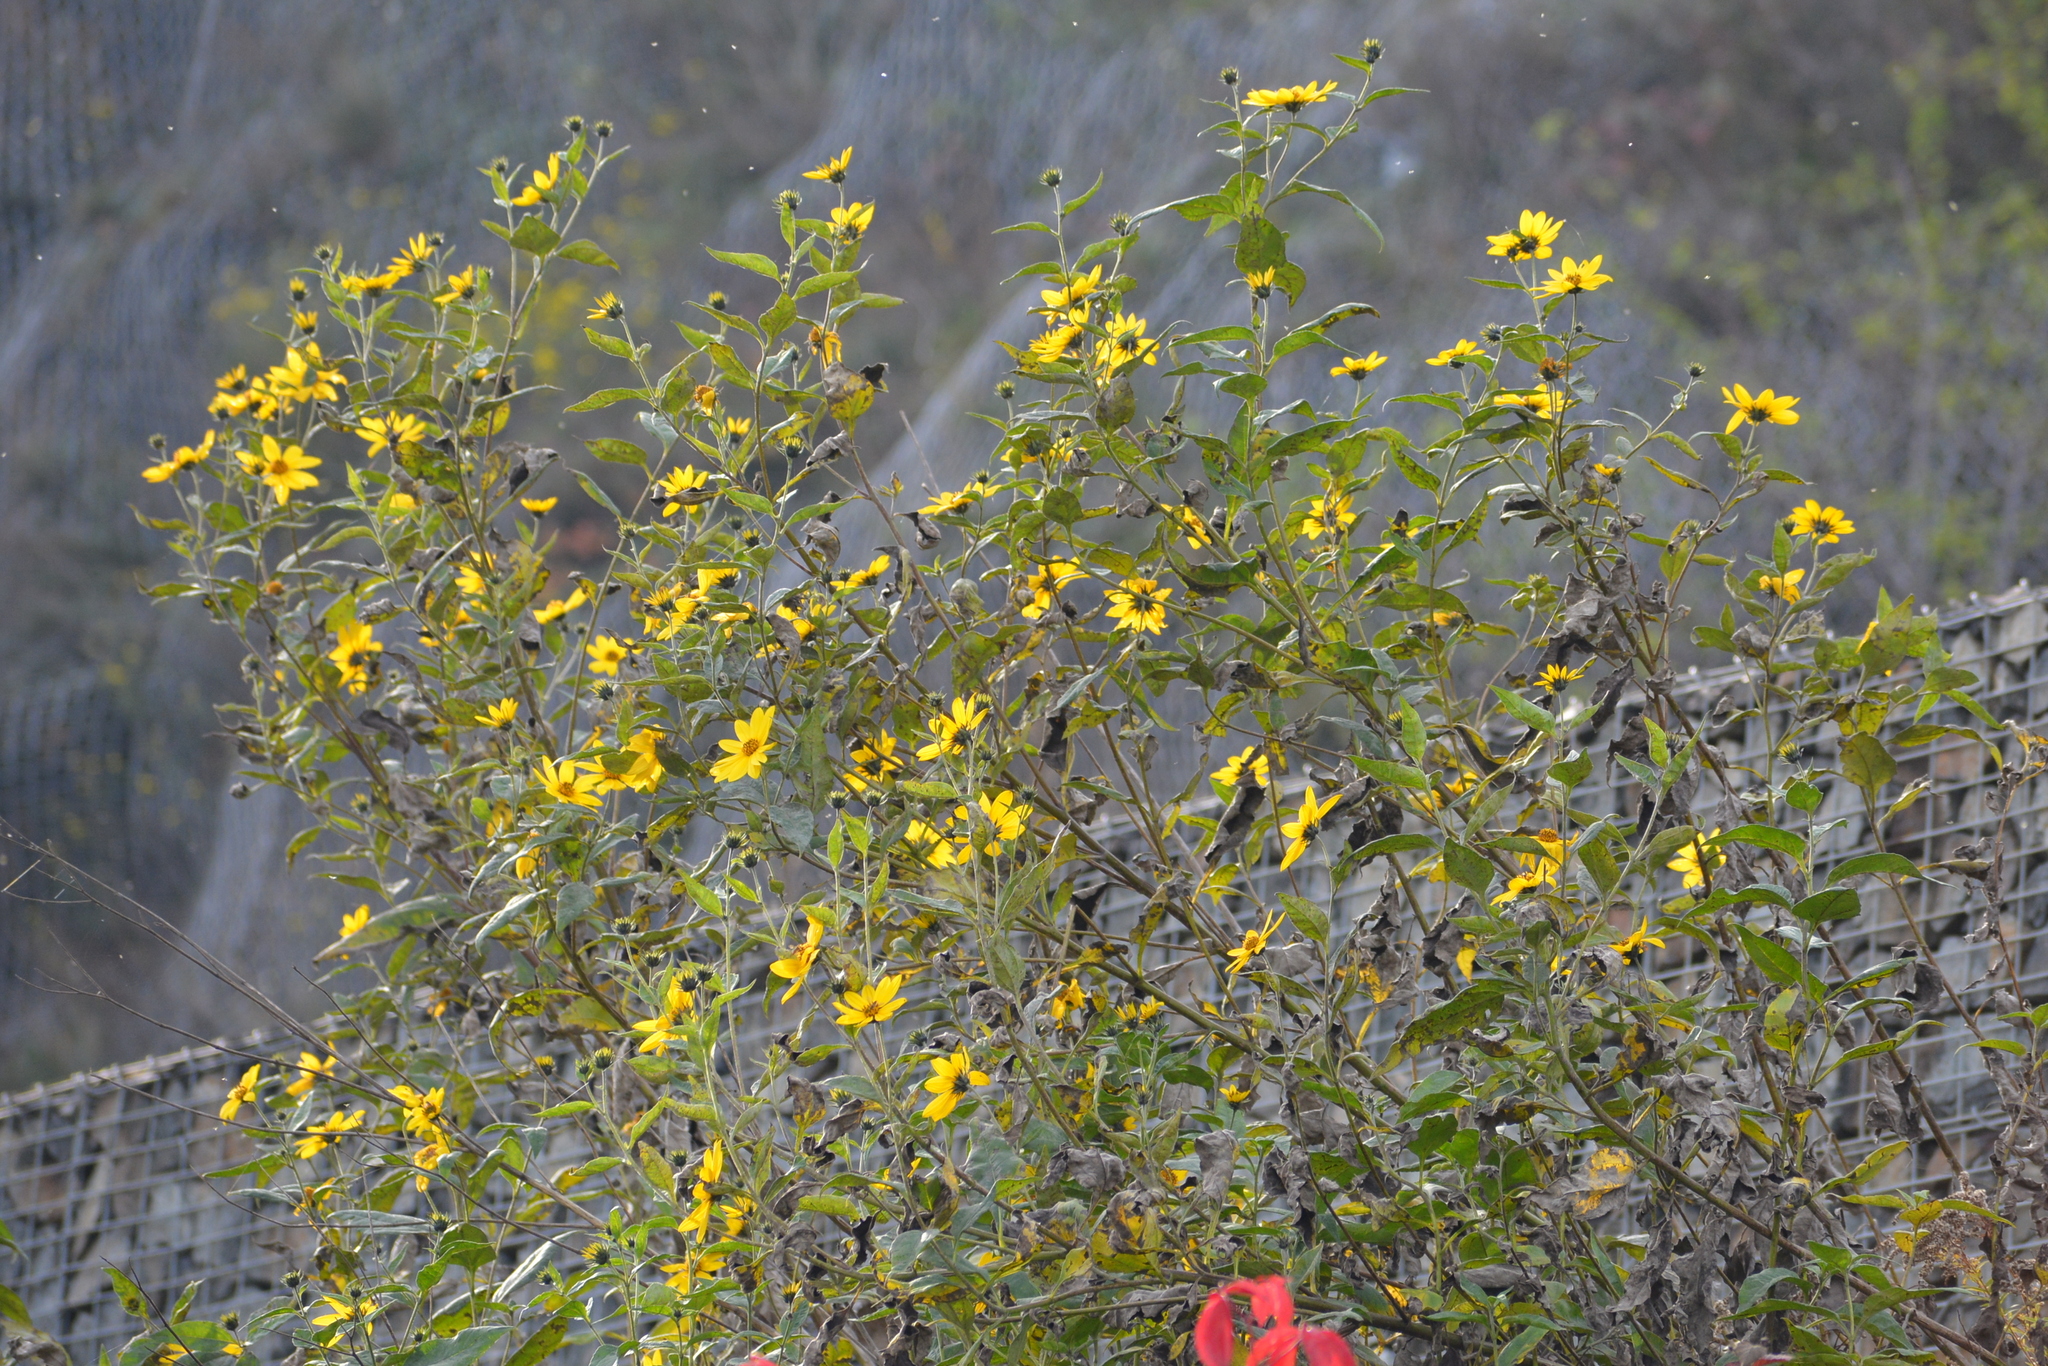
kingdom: Plantae
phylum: Tracheophyta
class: Magnoliopsida
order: Asterales
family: Asteraceae
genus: Helianthus
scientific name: Helianthus tuberosus
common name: Jerusalem artichoke
